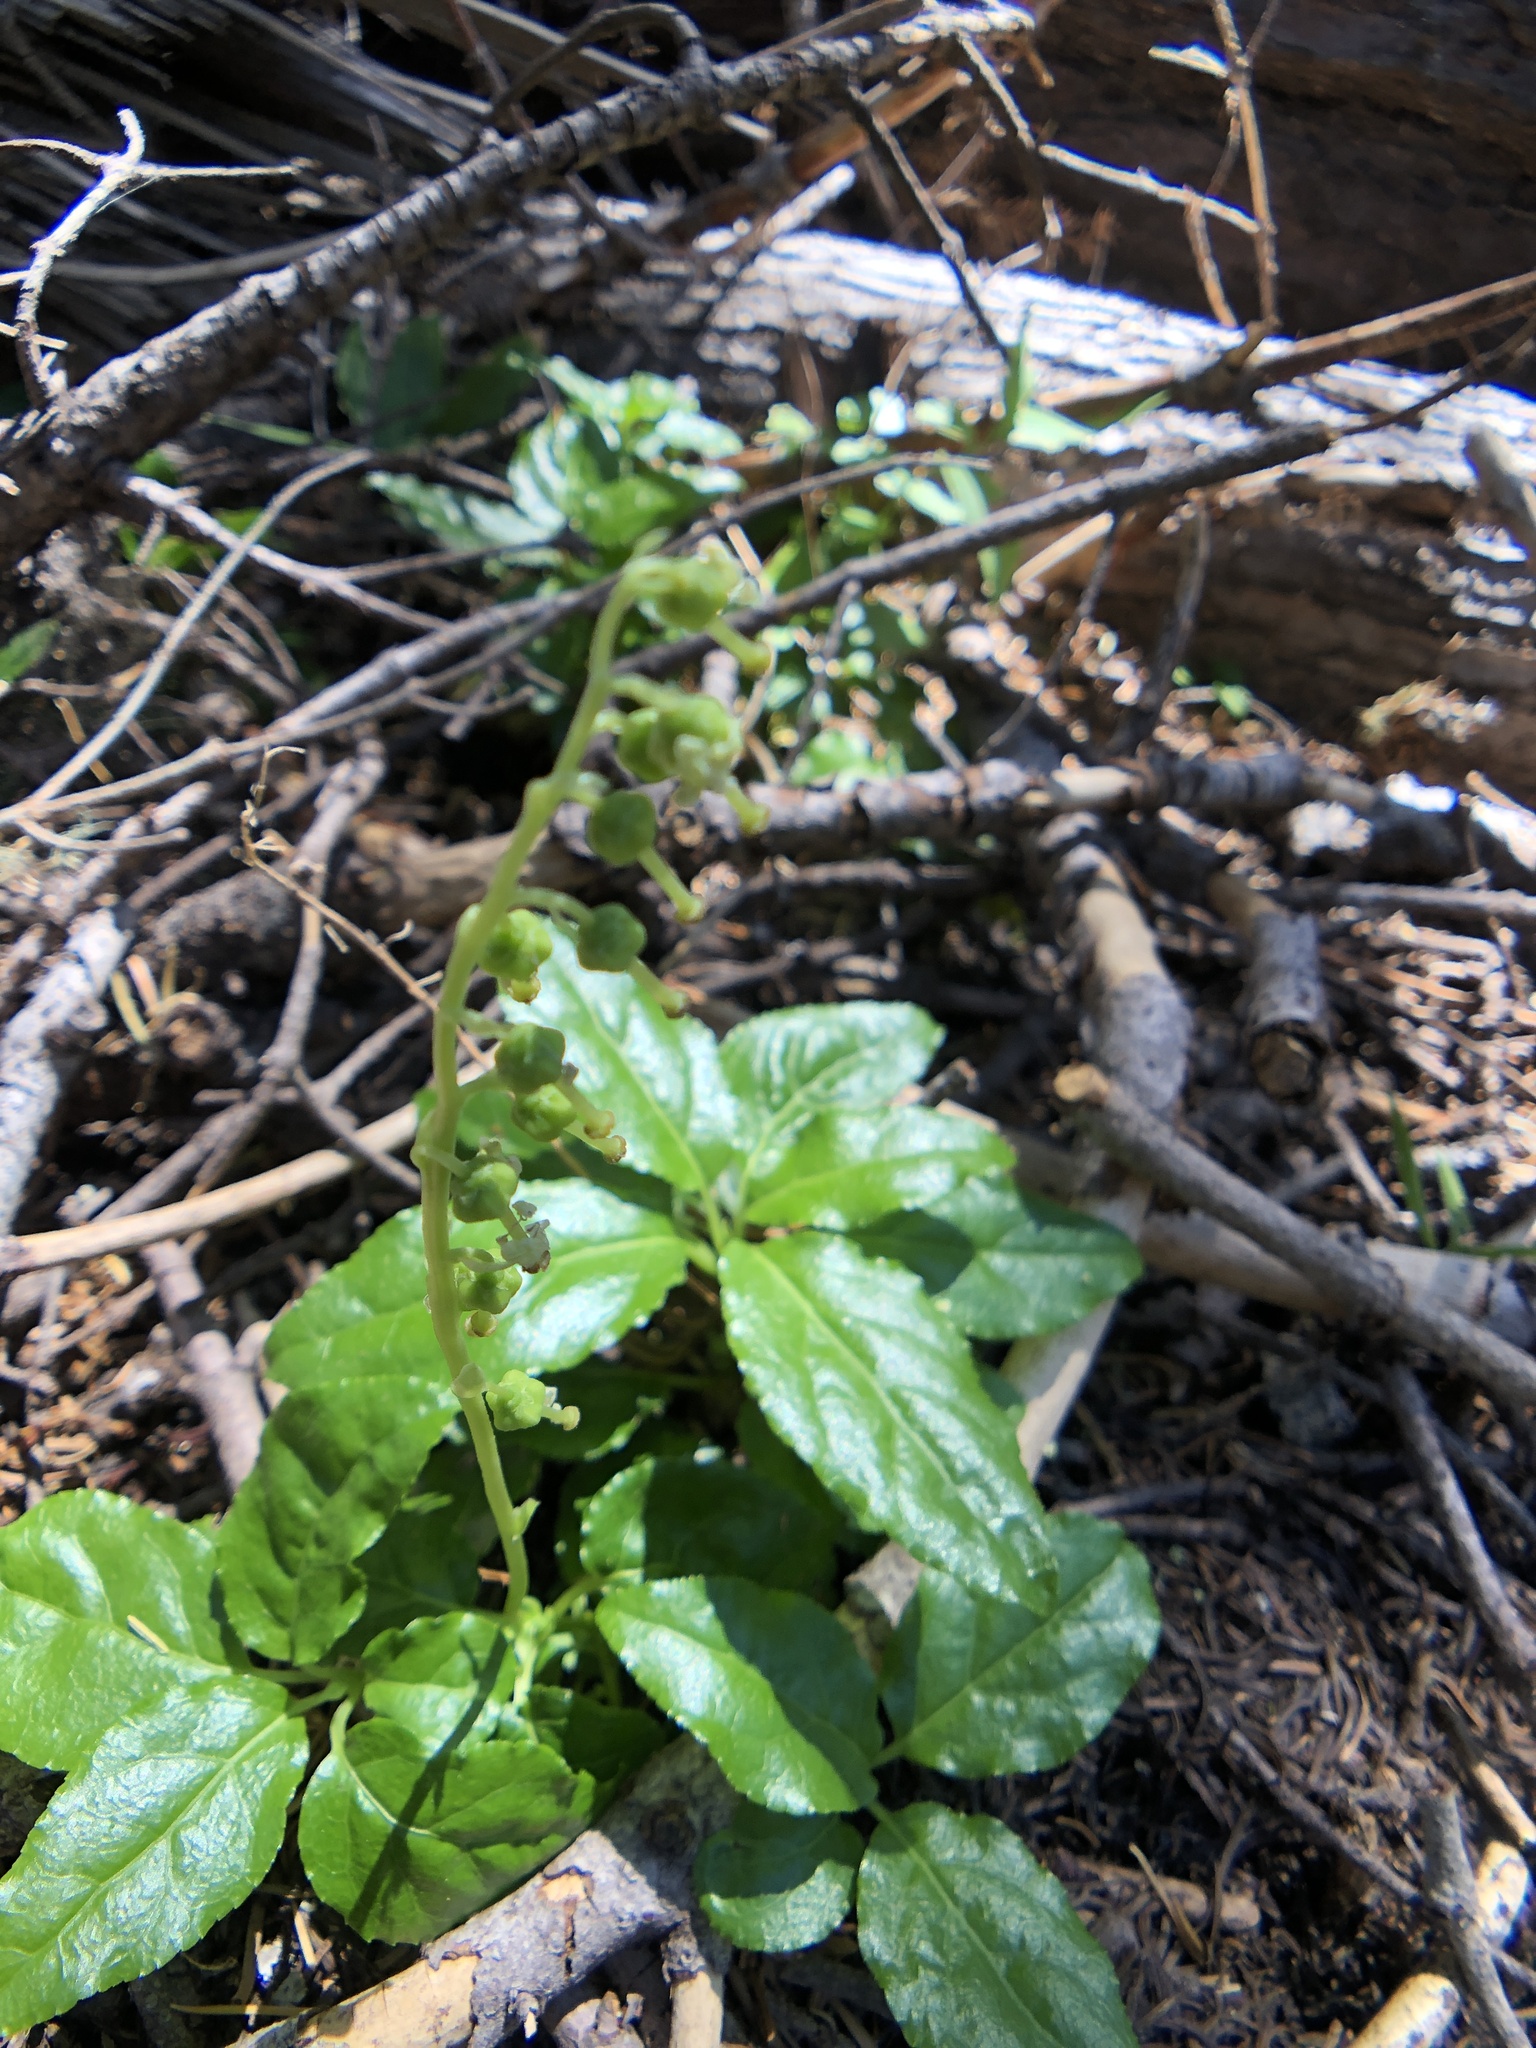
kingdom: Plantae
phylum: Tracheophyta
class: Magnoliopsida
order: Ericales
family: Ericaceae
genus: Orthilia
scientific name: Orthilia secunda
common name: One-sided orthilia
